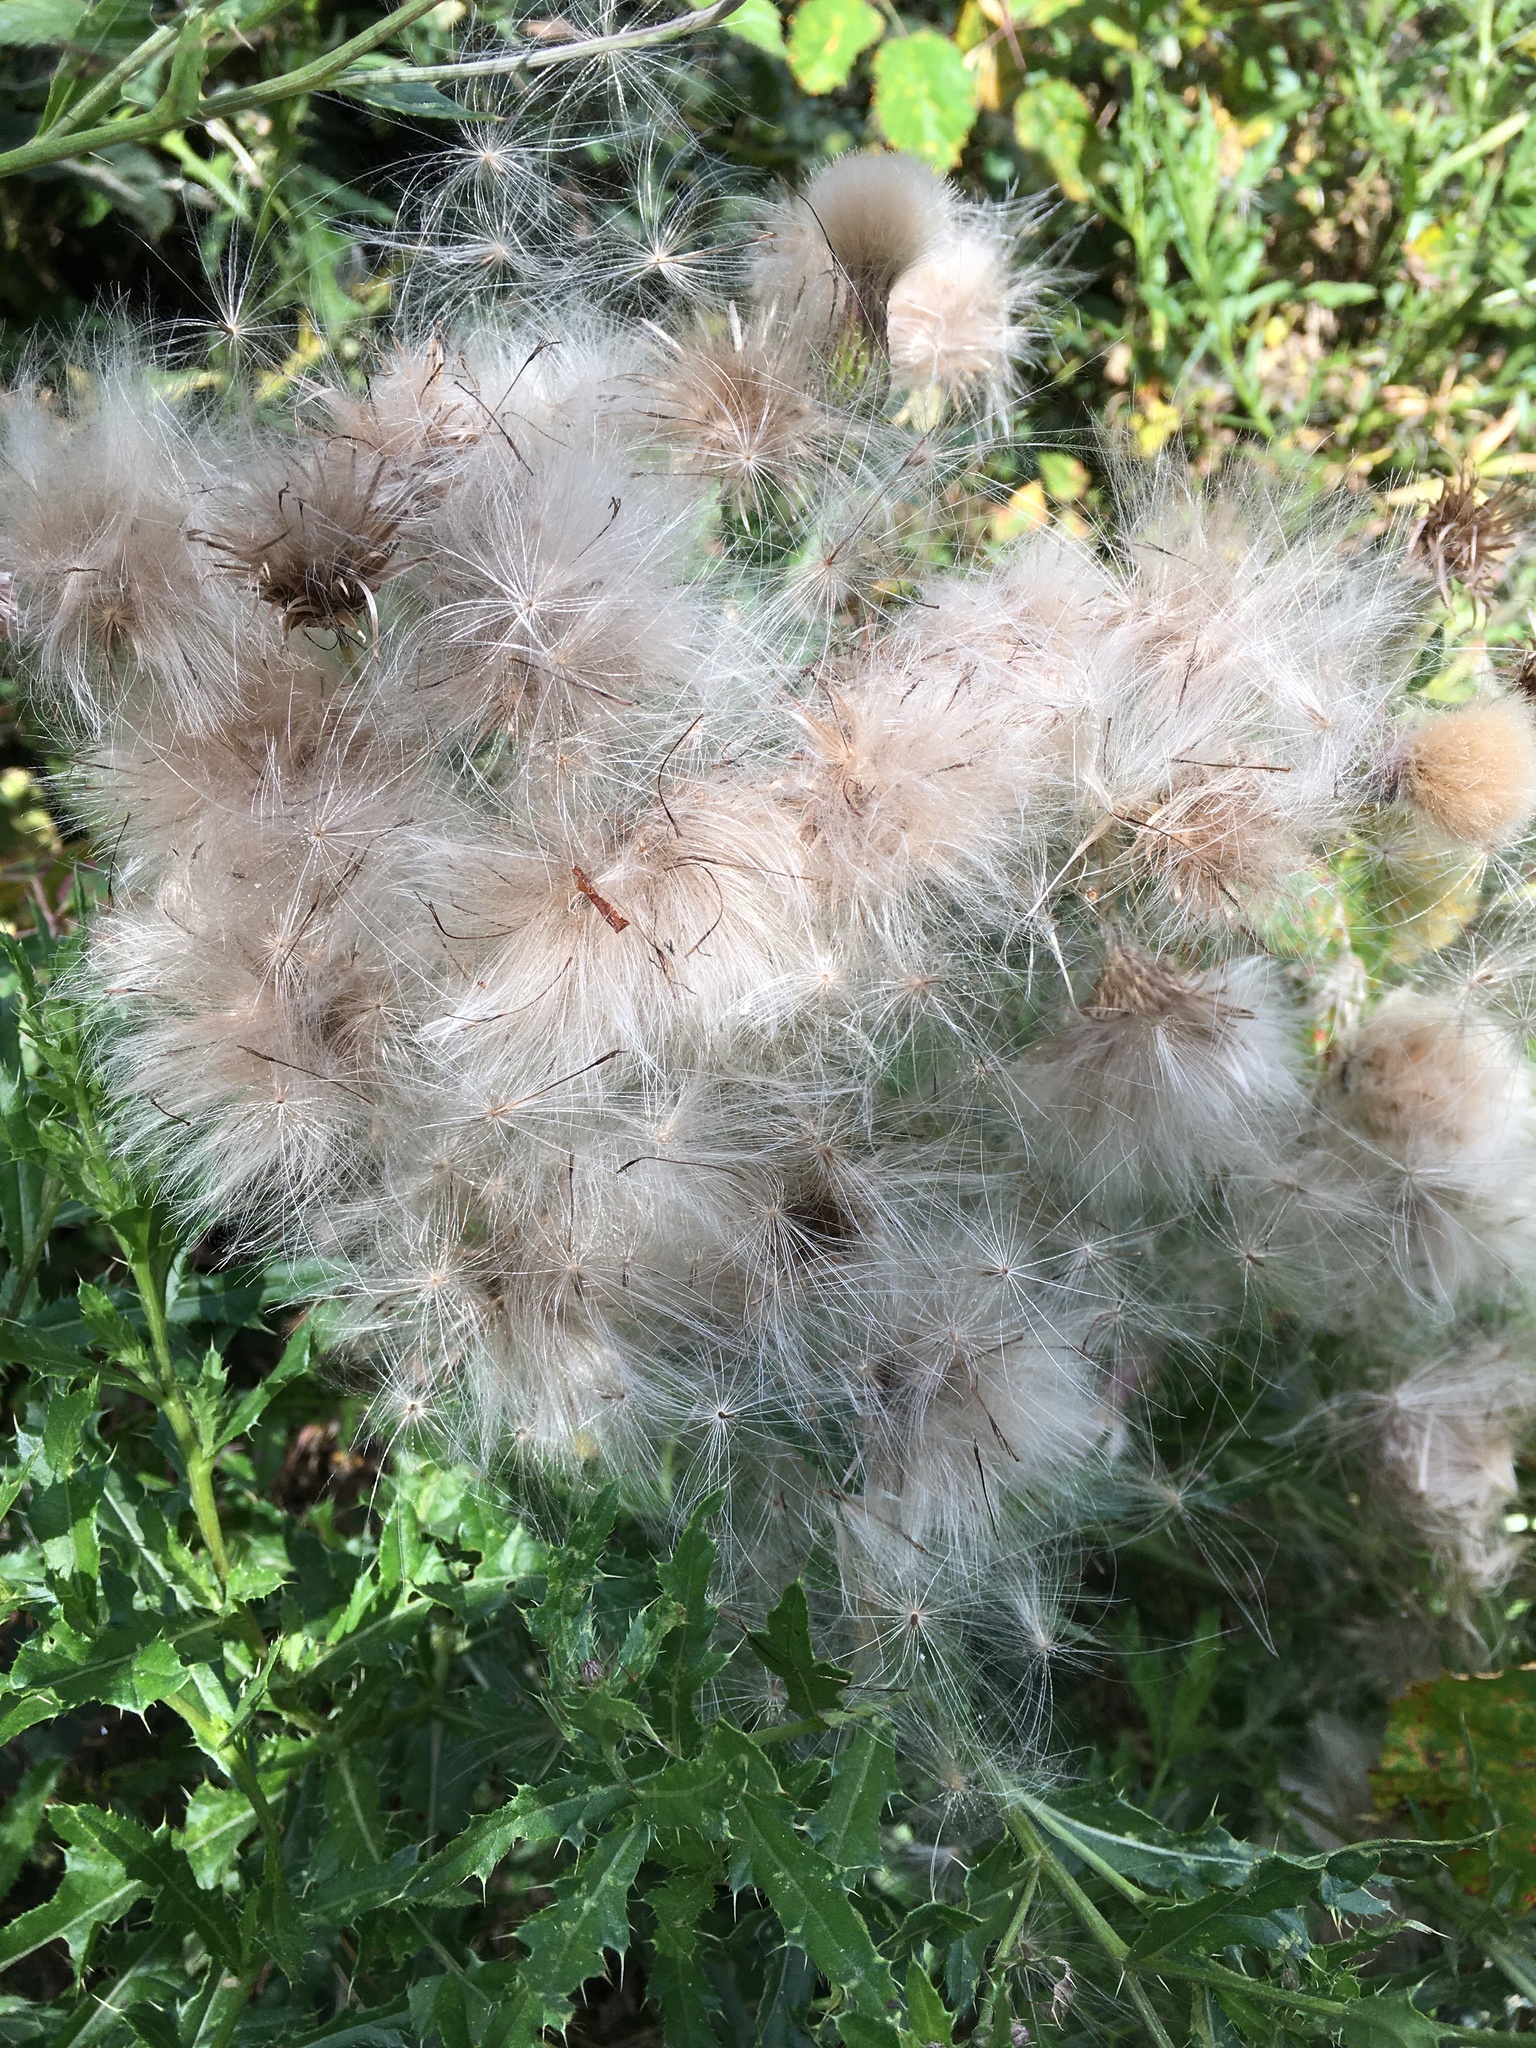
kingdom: Plantae
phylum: Tracheophyta
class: Magnoliopsida
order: Asterales
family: Asteraceae
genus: Cirsium
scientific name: Cirsium arvense
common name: Creeping thistle
